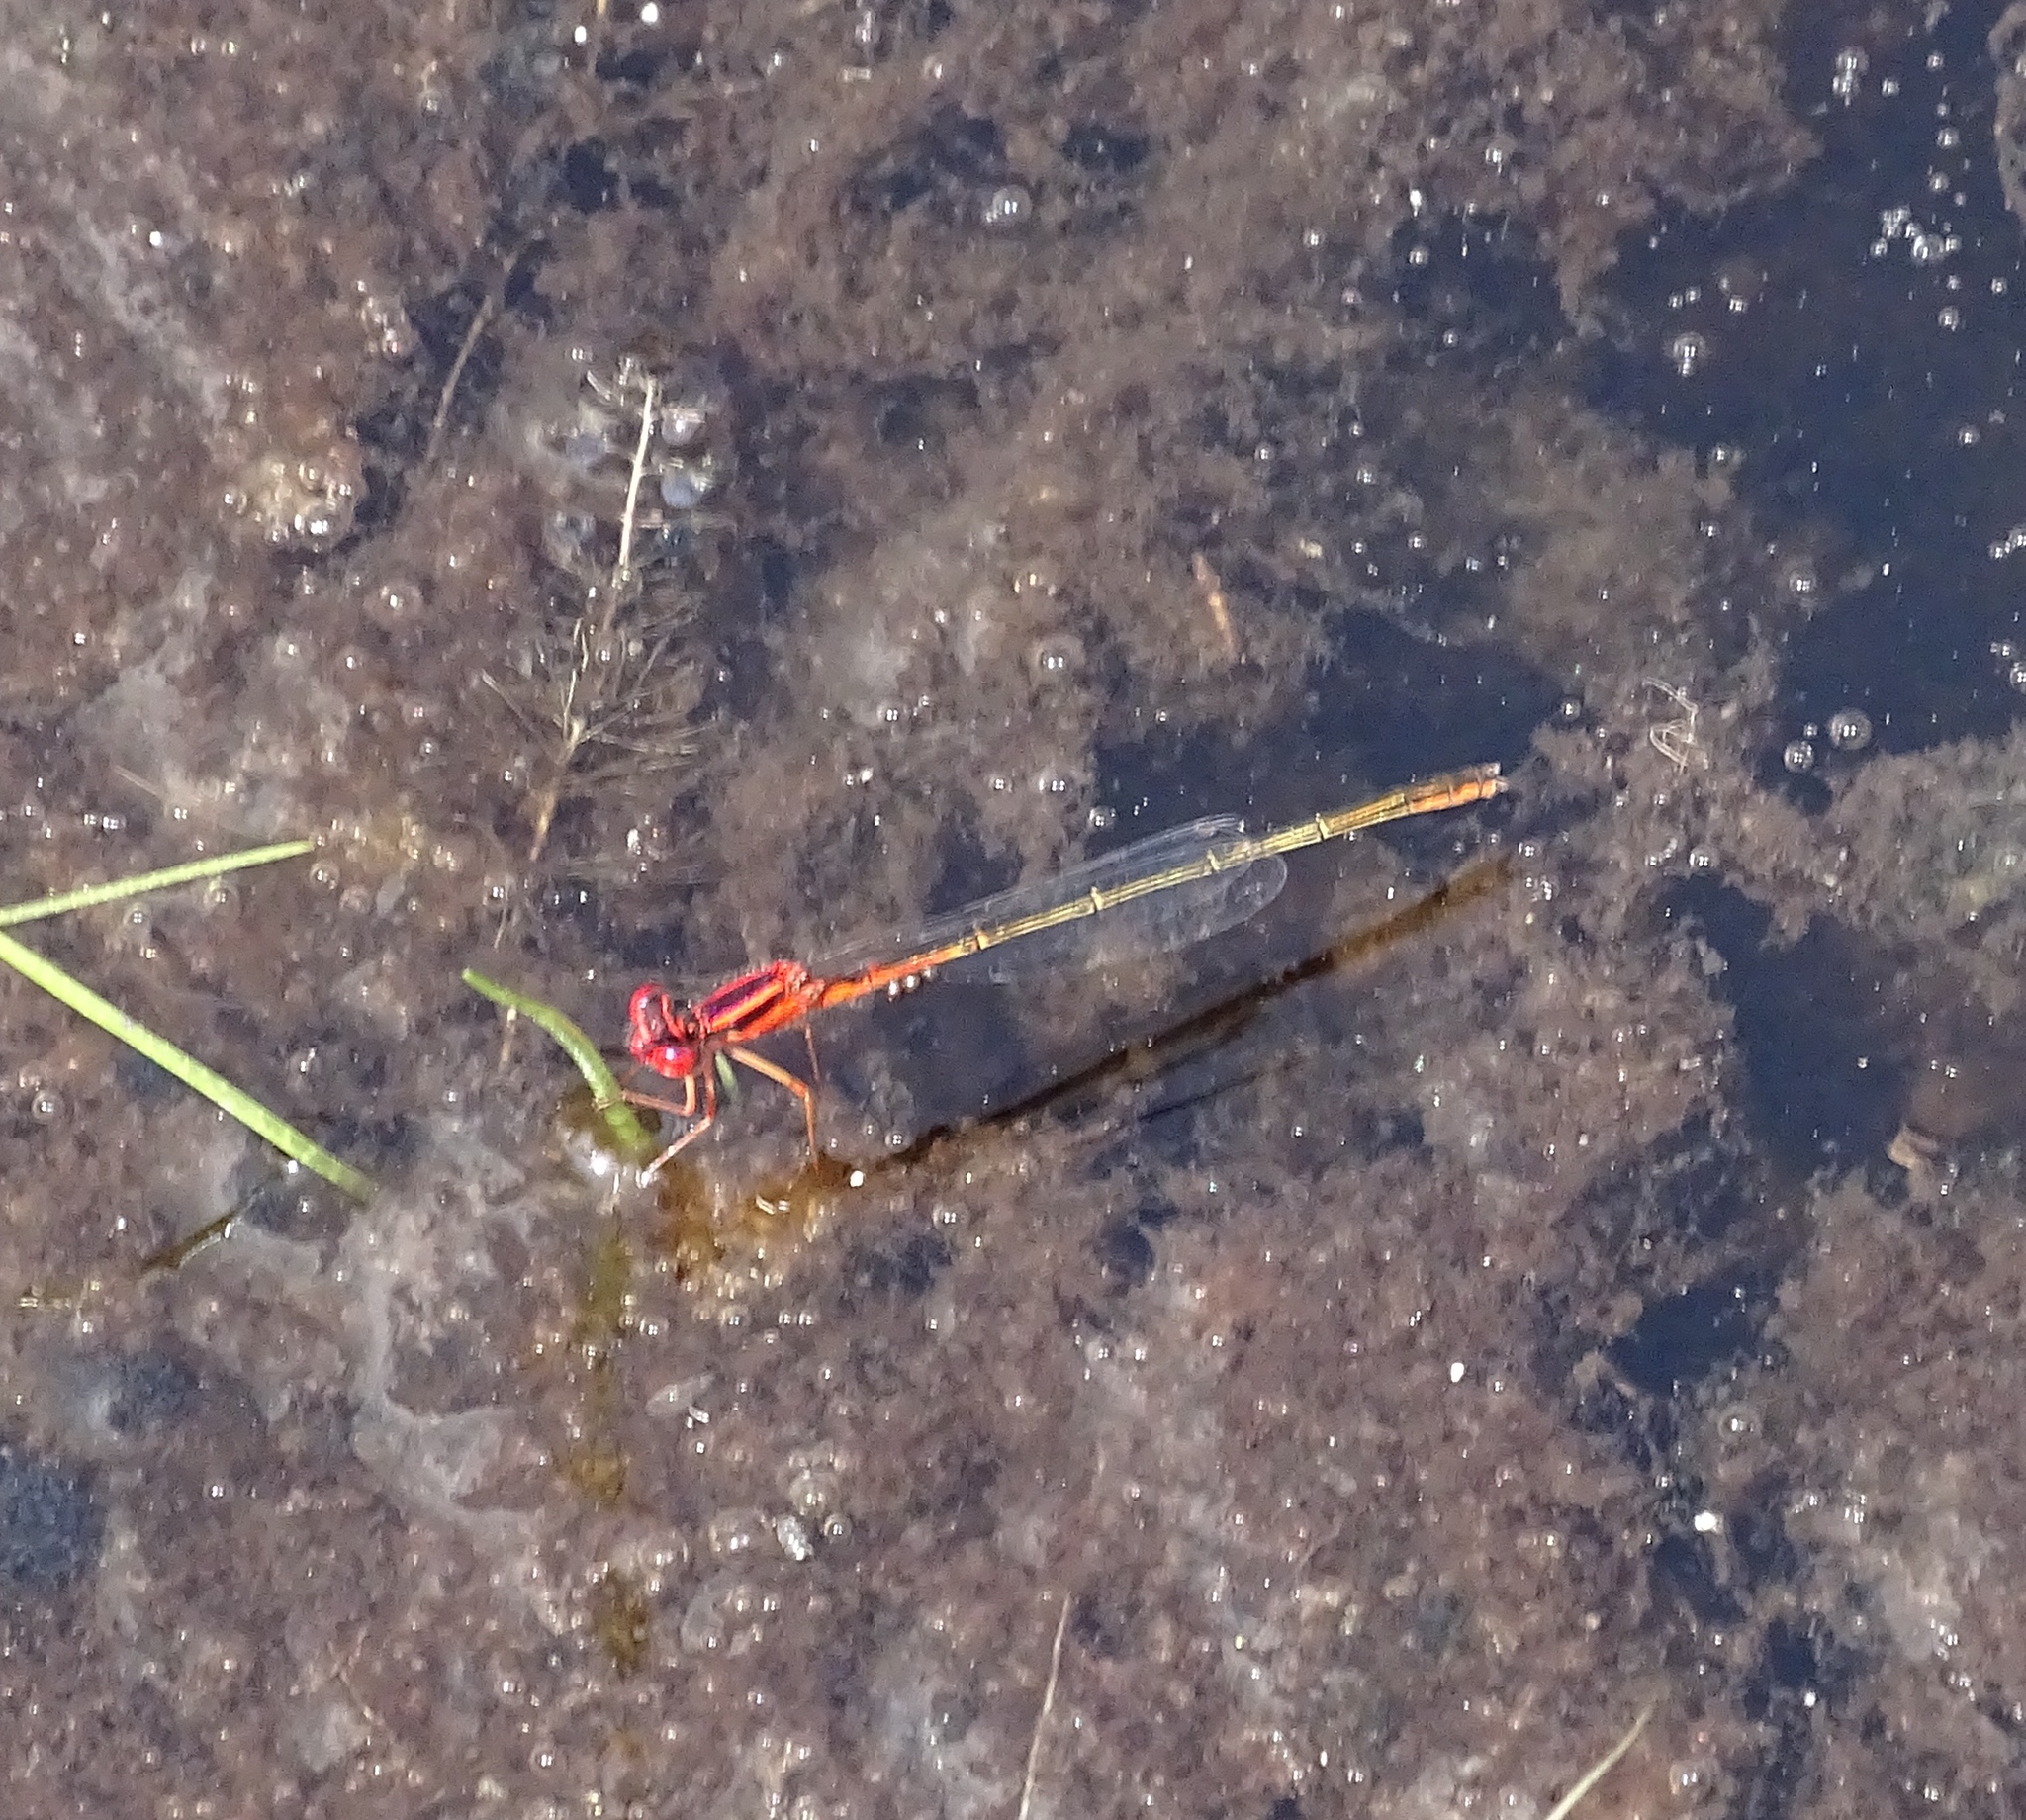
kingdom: Animalia
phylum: Arthropoda
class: Insecta
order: Odonata
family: Coenagrionidae
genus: Enallagma
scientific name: Enallagma pictum
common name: Scarlet bluet
